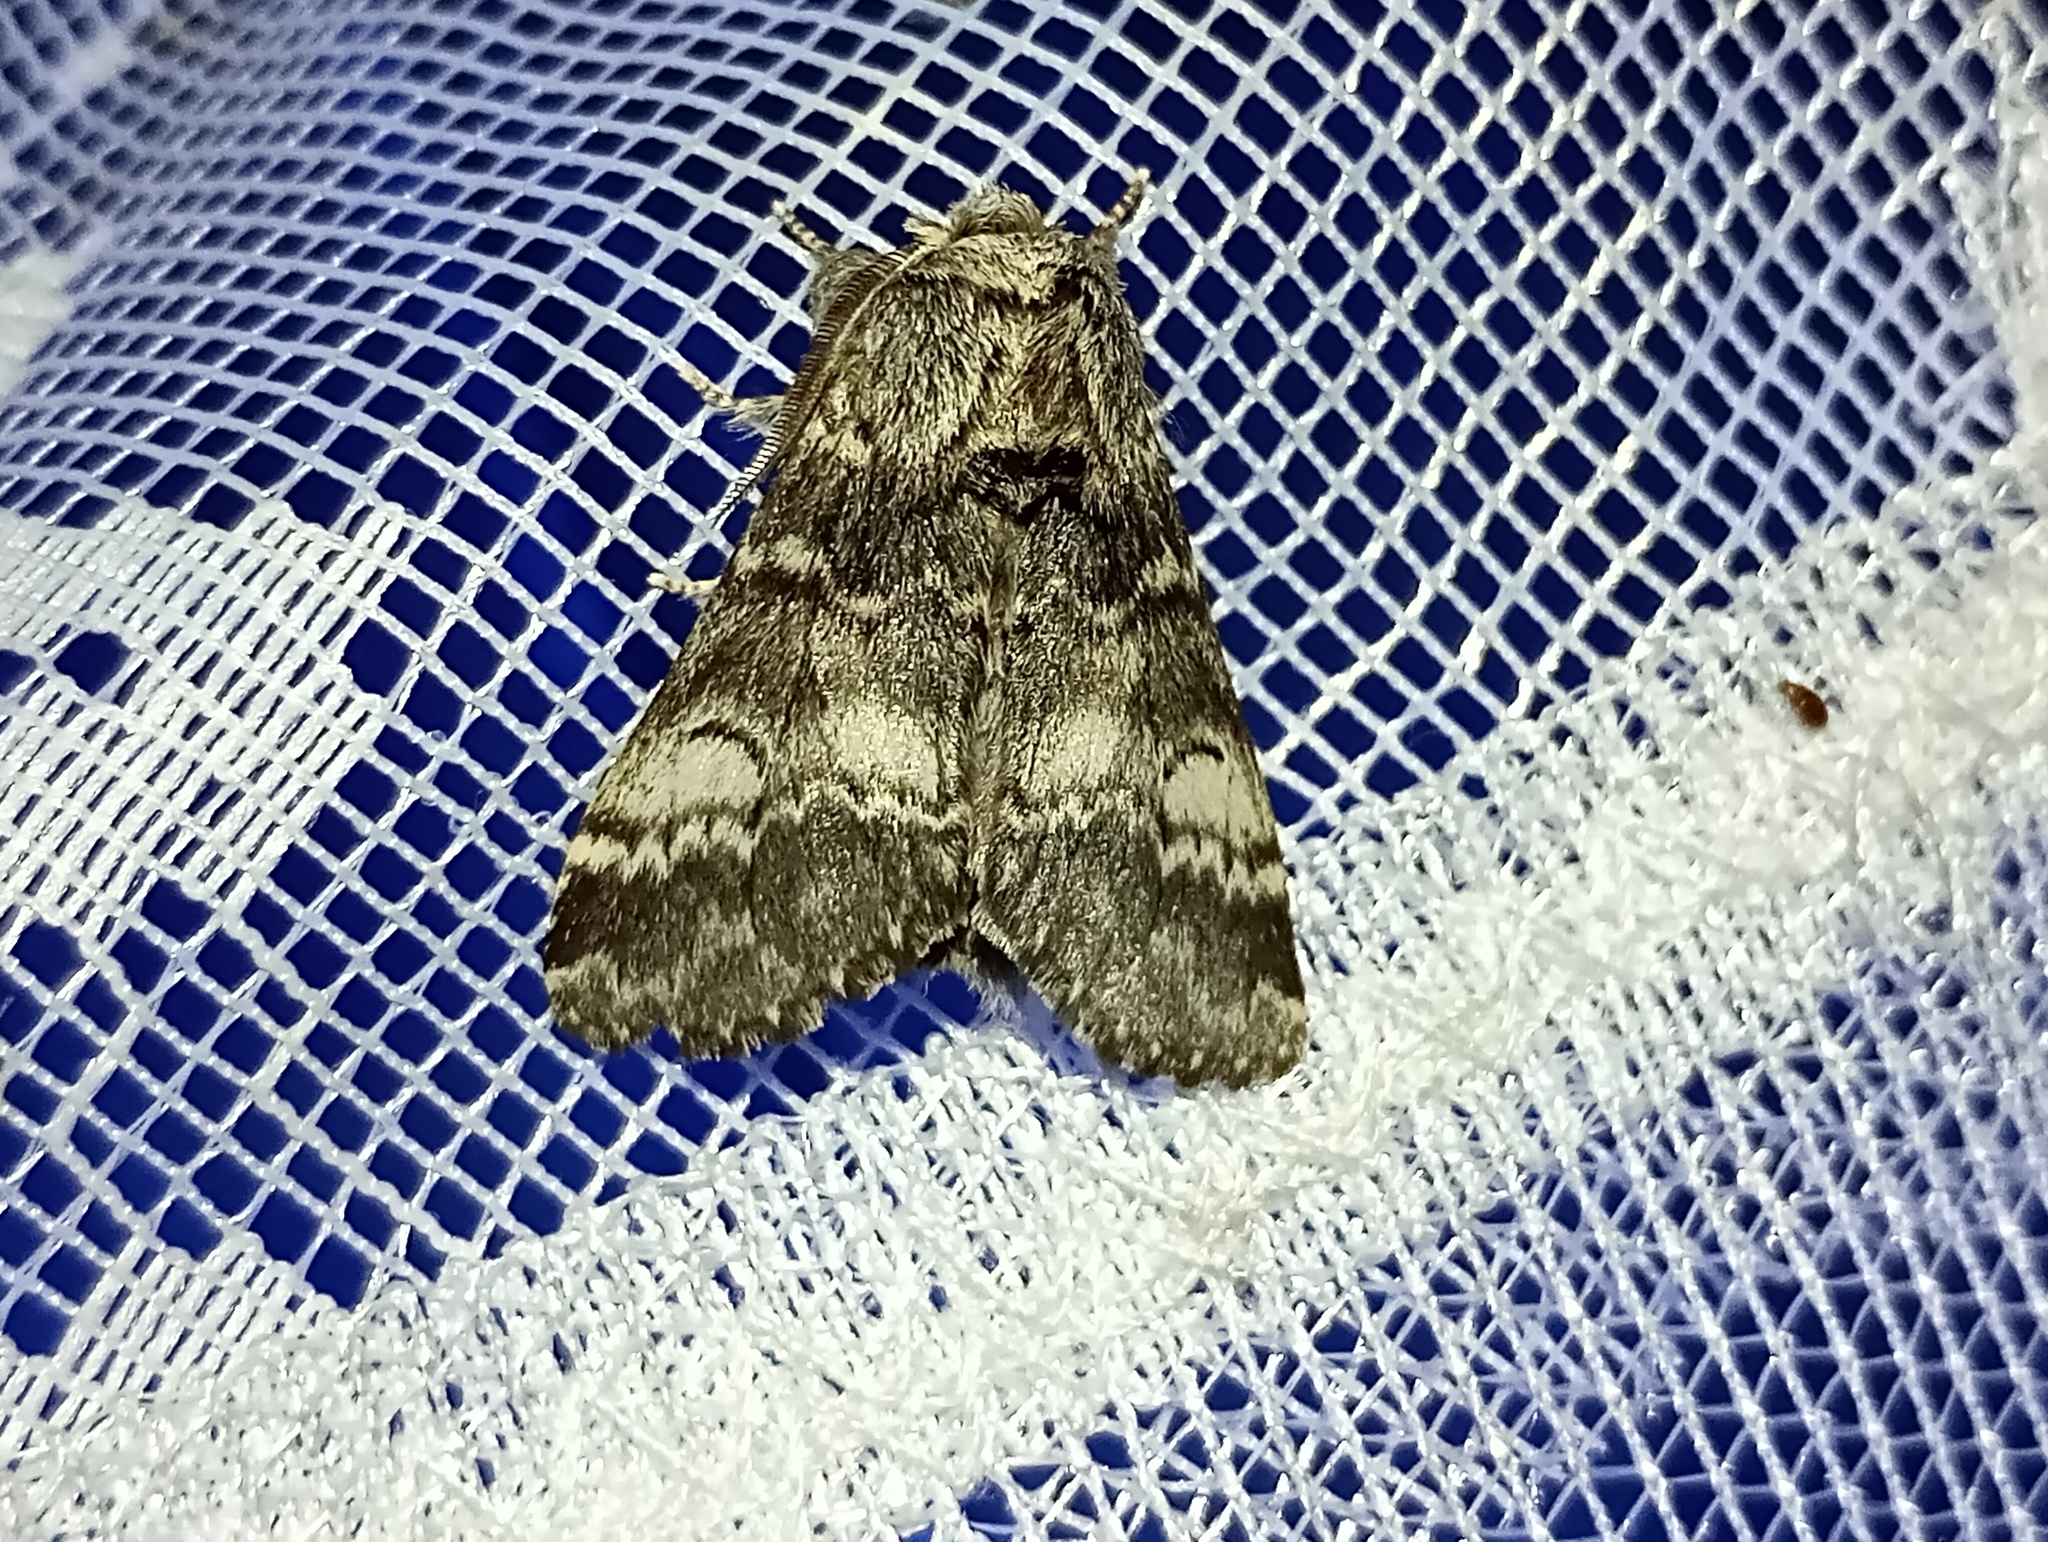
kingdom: Animalia
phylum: Arthropoda
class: Insecta
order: Lepidoptera
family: Notodontidae
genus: Drymonia
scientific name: Drymonia ruficornis
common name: Lunar marbled brown
